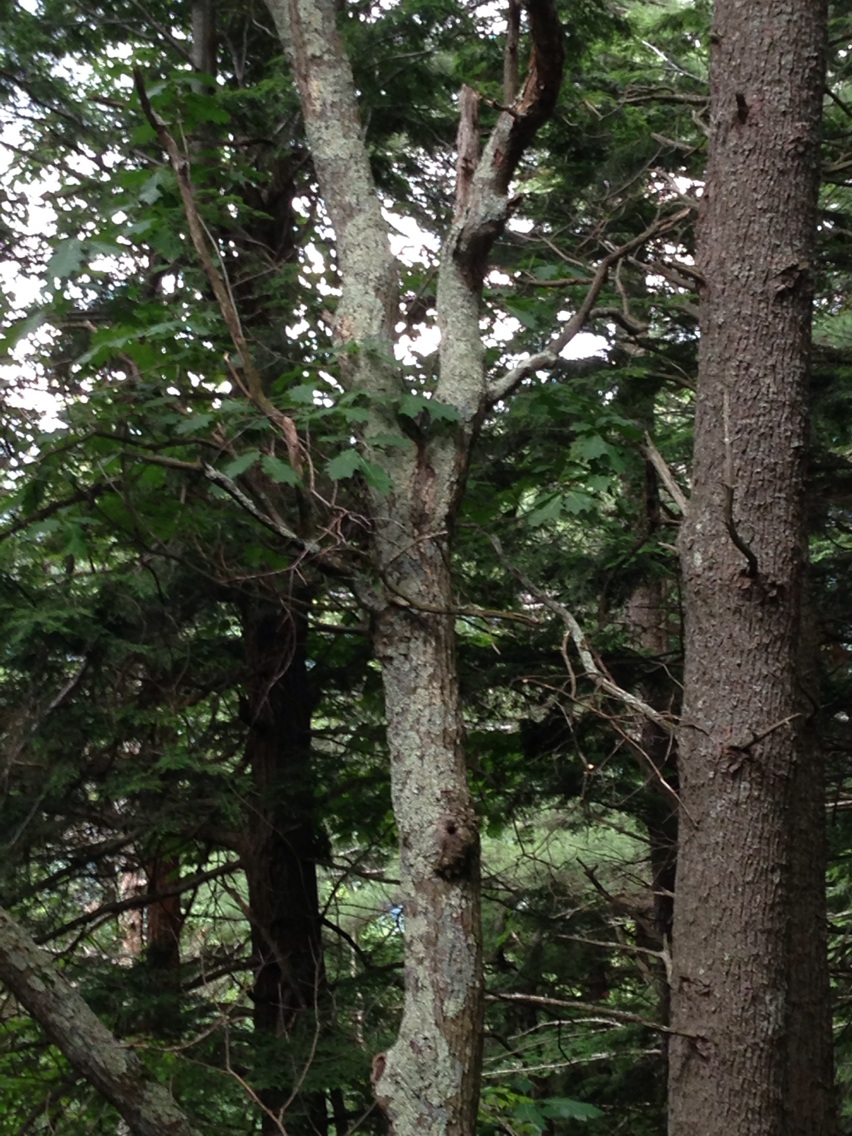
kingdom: Plantae
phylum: Tracheophyta
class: Magnoliopsida
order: Fagales
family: Fagaceae
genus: Quercus
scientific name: Quercus rubra
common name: Red oak
